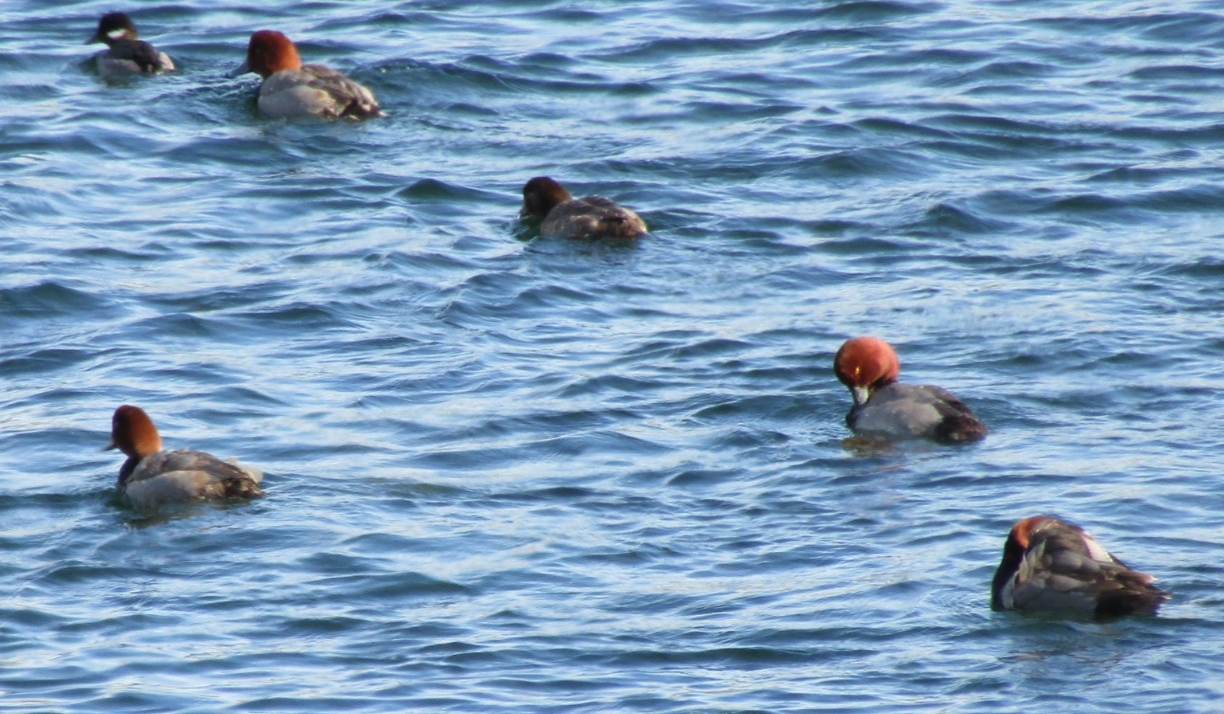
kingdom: Animalia
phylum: Chordata
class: Aves
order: Anseriformes
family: Anatidae
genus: Aythya
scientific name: Aythya americana
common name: Redhead
